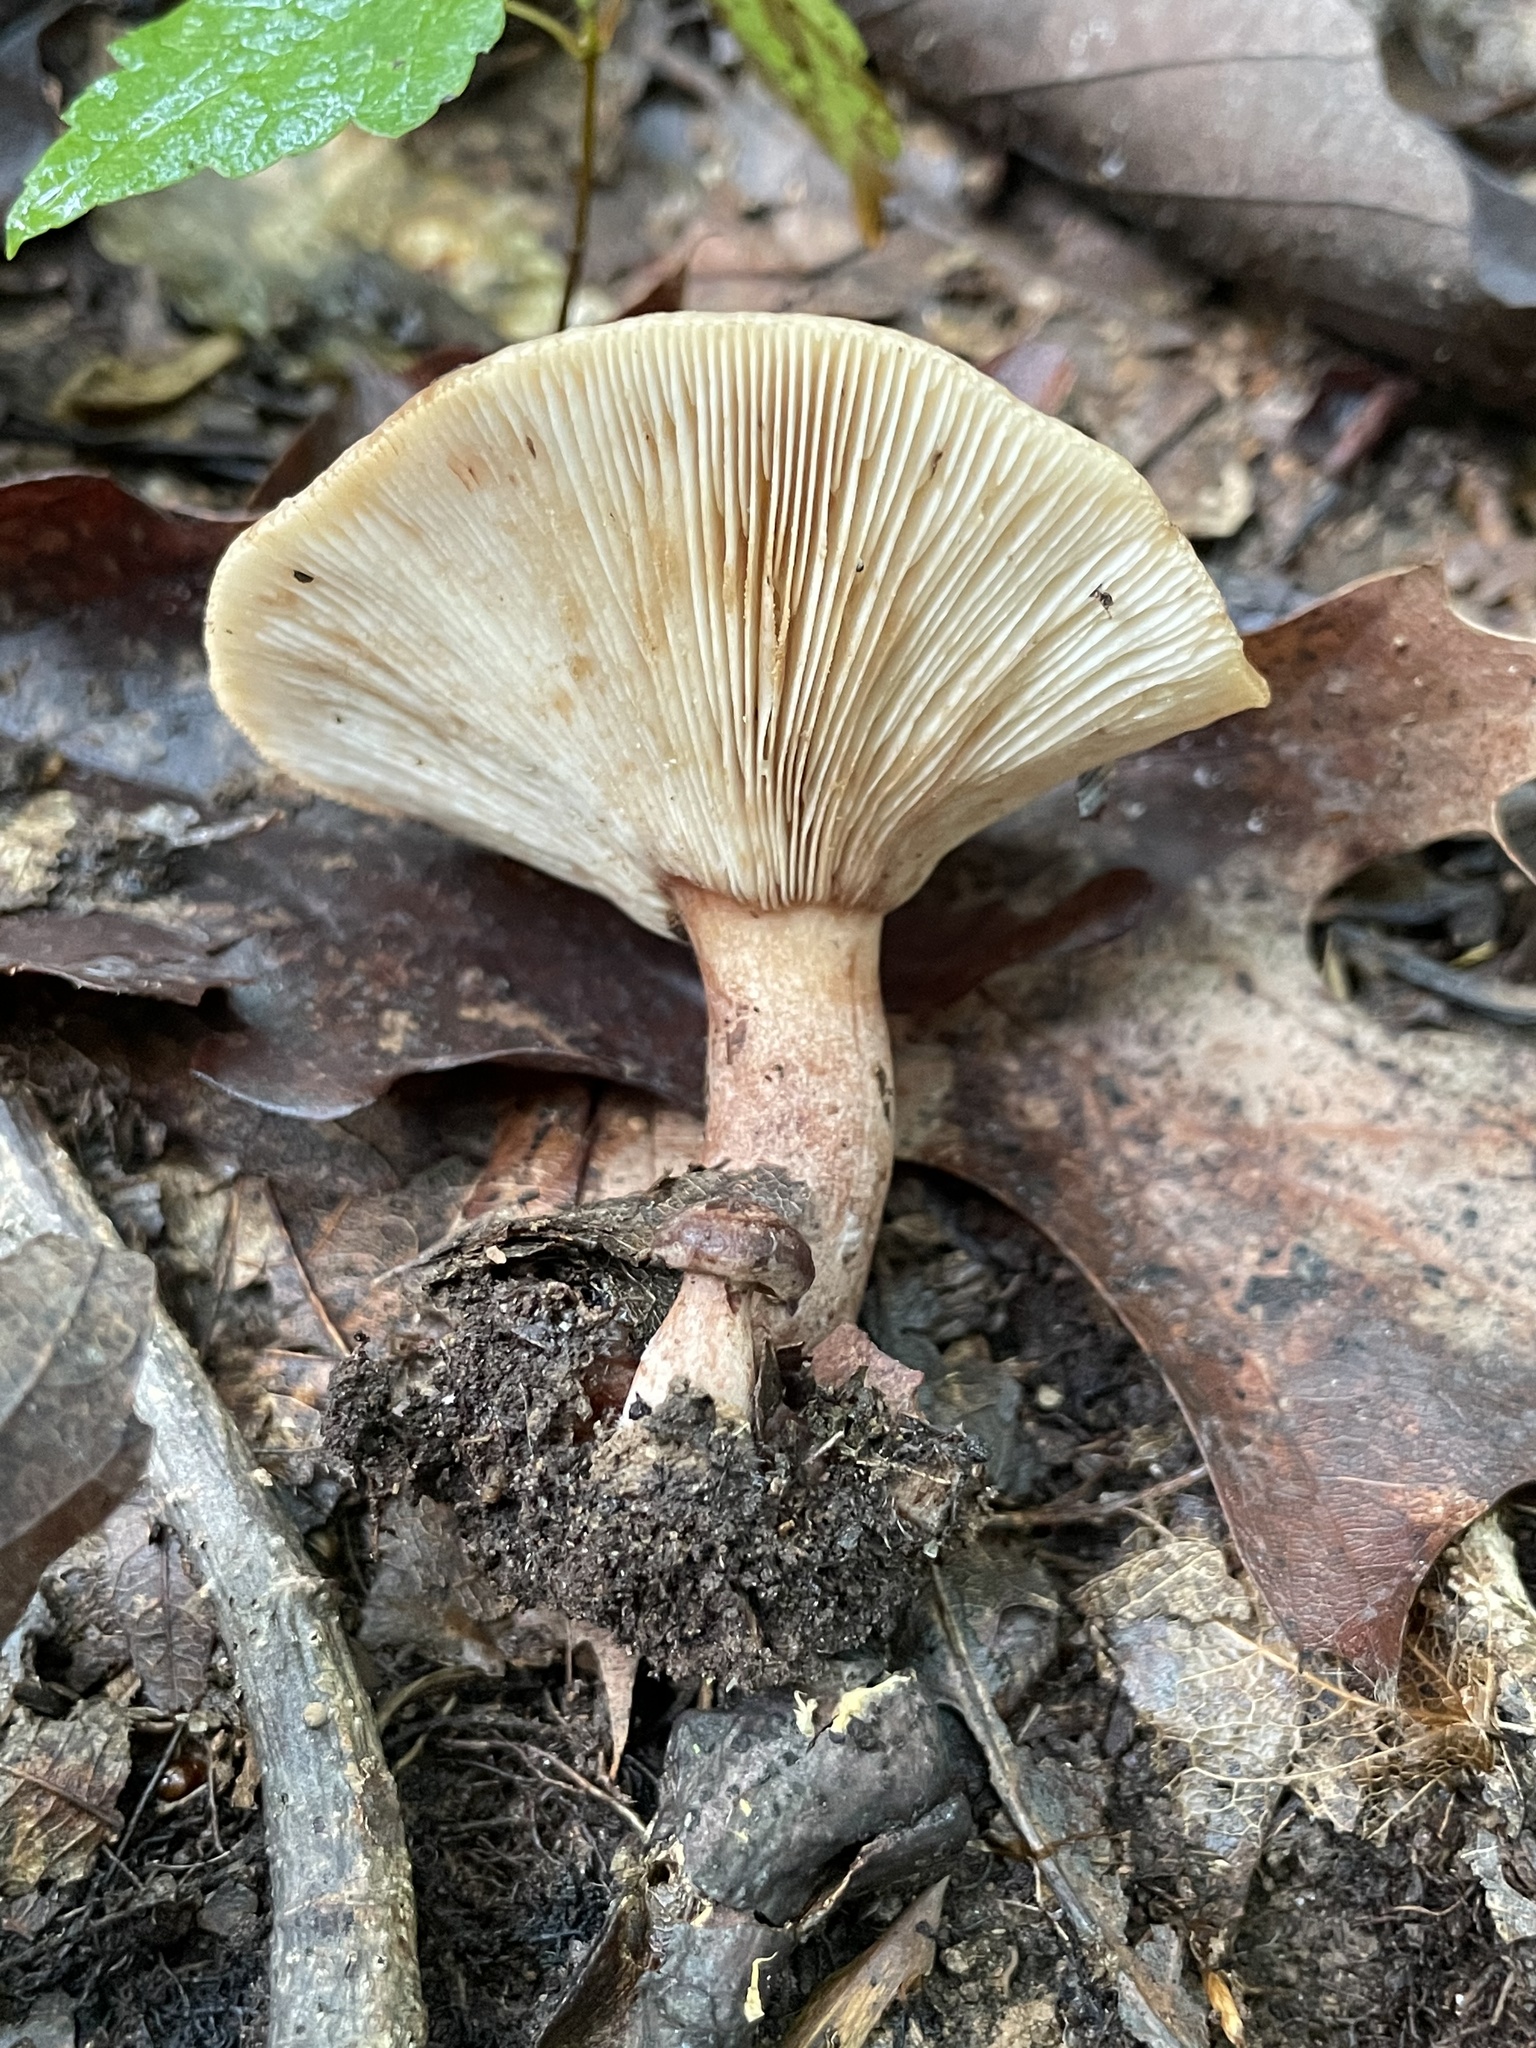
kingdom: Fungi
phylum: Basidiomycota
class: Agaricomycetes
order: Russulales
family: Russulaceae
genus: Lactarius
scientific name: Lactarius quietus
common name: Oak milk-cap
